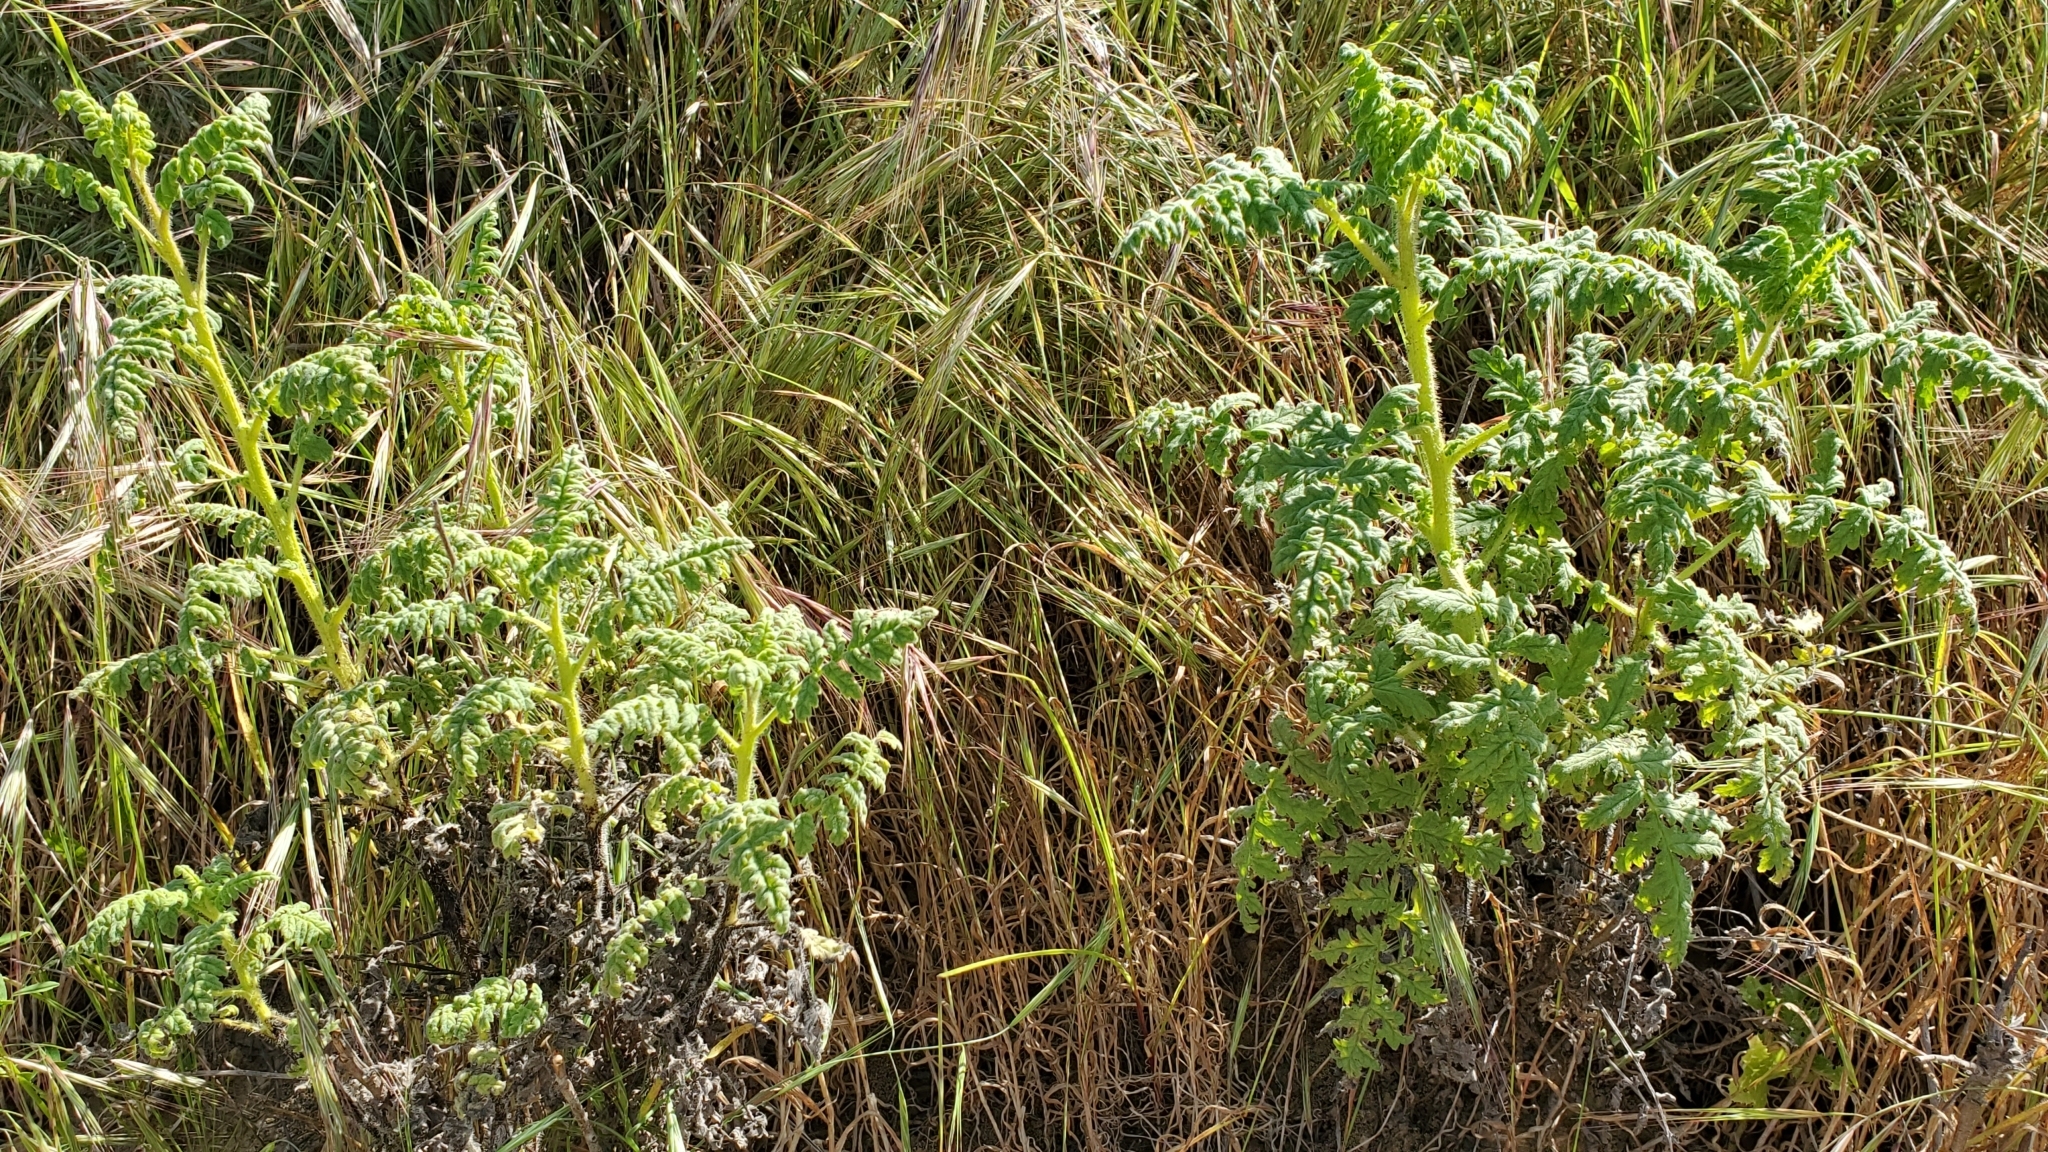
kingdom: Plantae
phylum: Tracheophyta
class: Magnoliopsida
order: Boraginales
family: Hydrophyllaceae
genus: Phacelia
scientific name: Phacelia ramosissima
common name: Branching phacelia
